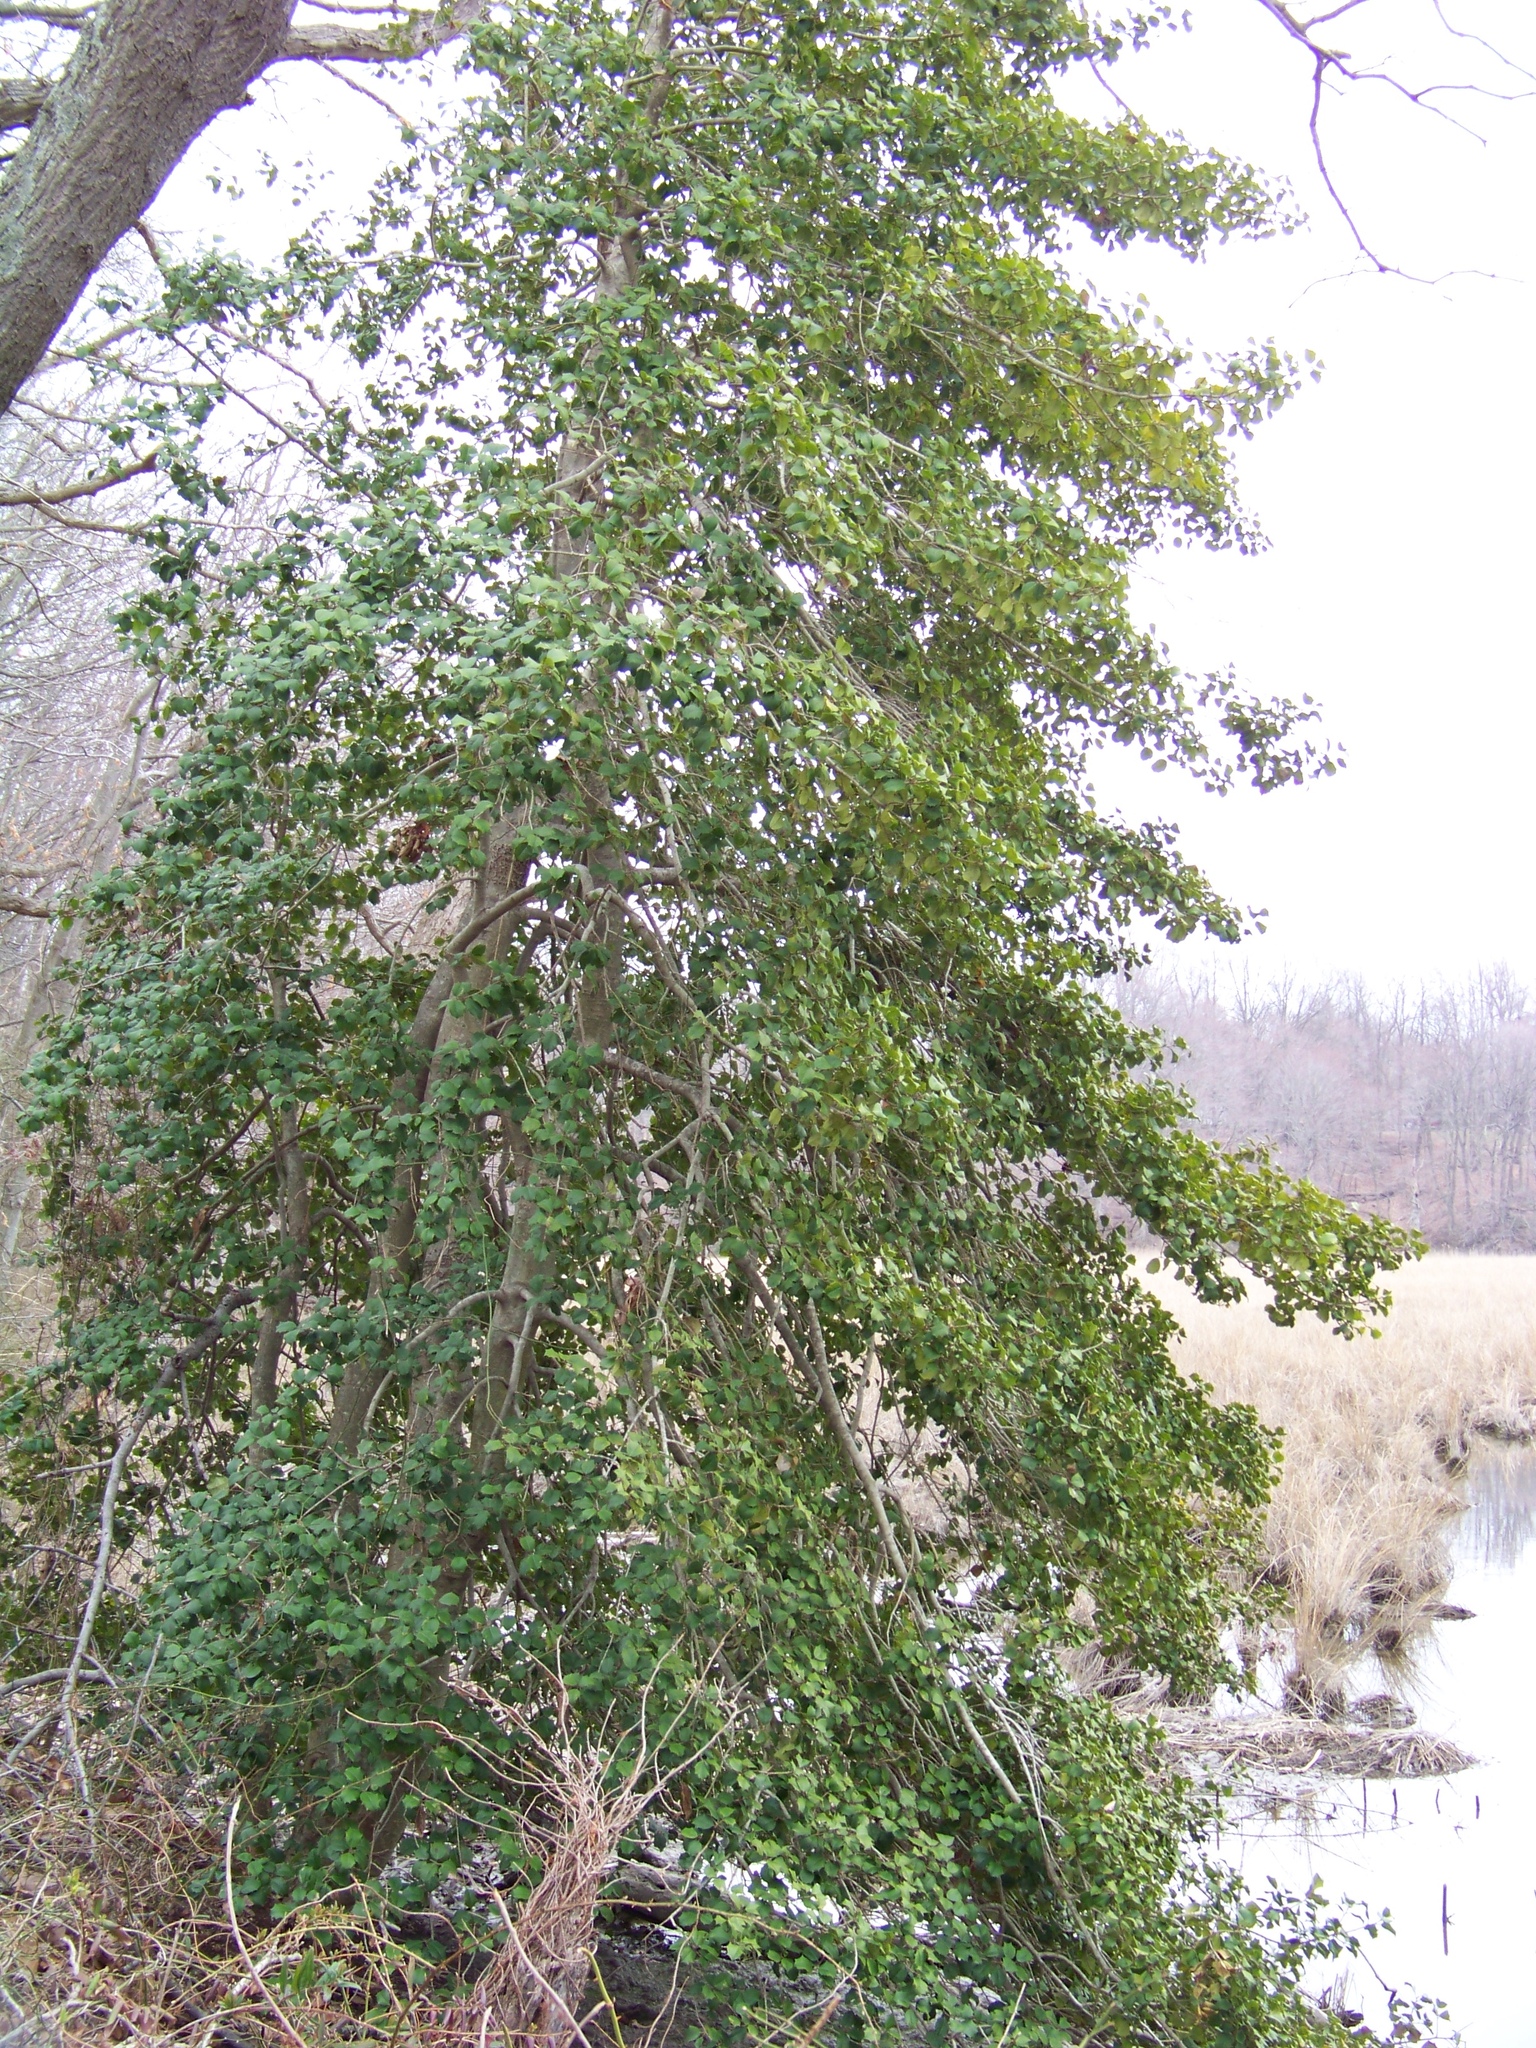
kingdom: Plantae
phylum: Tracheophyta
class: Magnoliopsida
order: Aquifoliales
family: Aquifoliaceae
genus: Ilex
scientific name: Ilex opaca
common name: American holly
